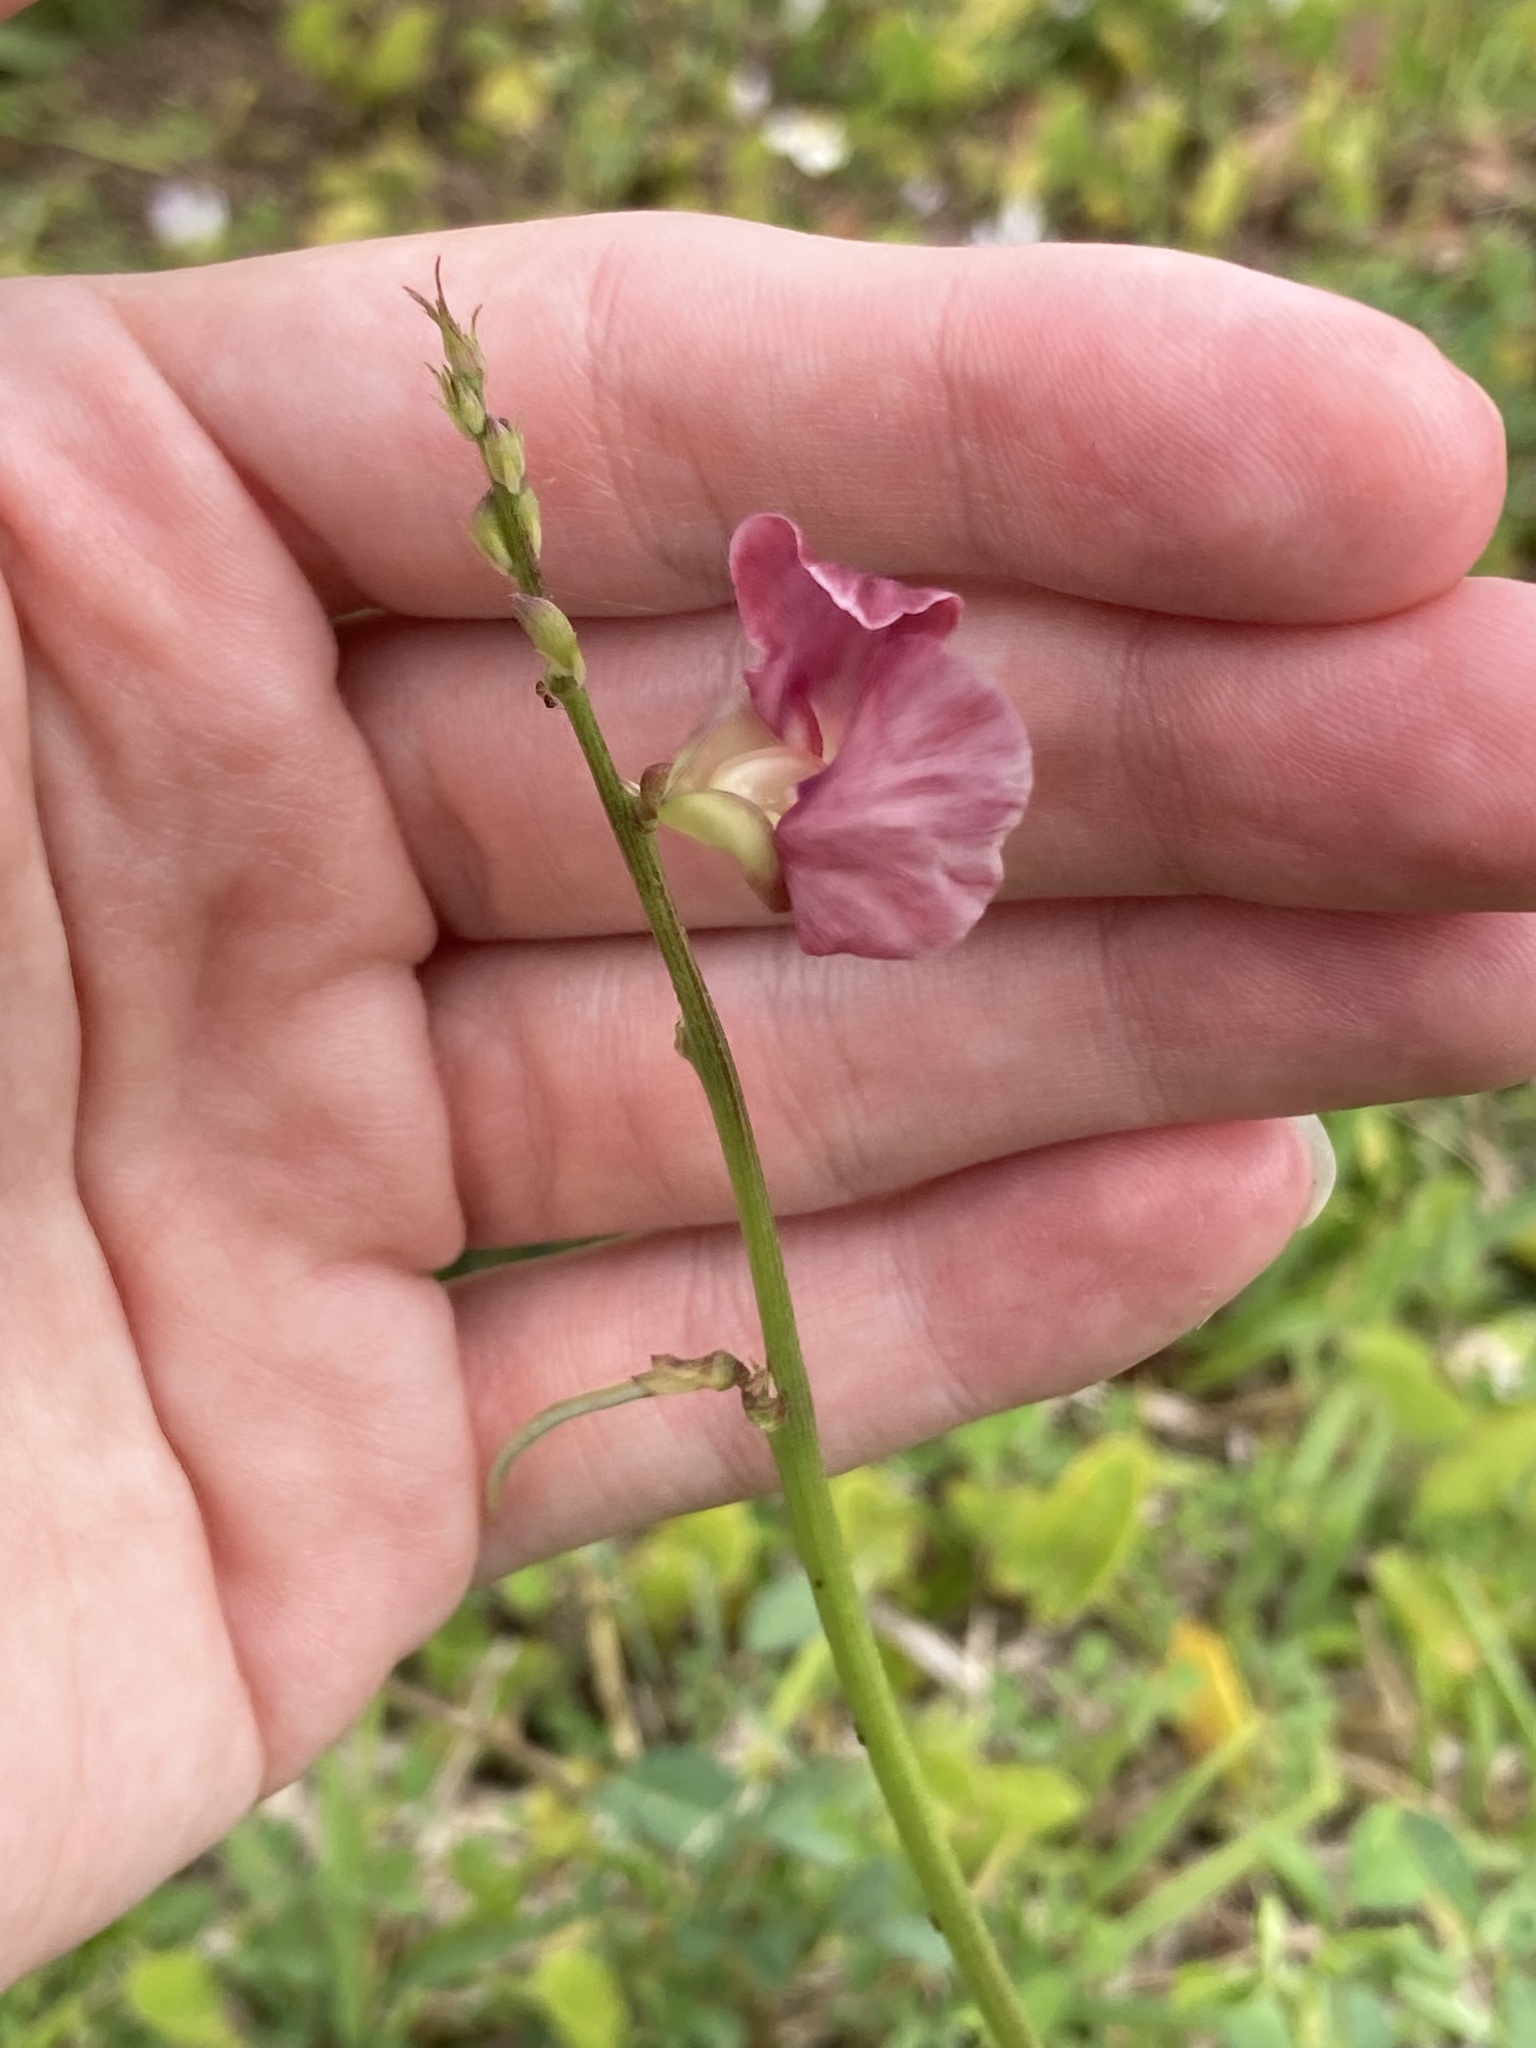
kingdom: Plantae
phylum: Tracheophyta
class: Magnoliopsida
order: Fabales
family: Fabaceae
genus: Macroptilium
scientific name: Macroptilium lathyroides
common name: Wild bushbean
